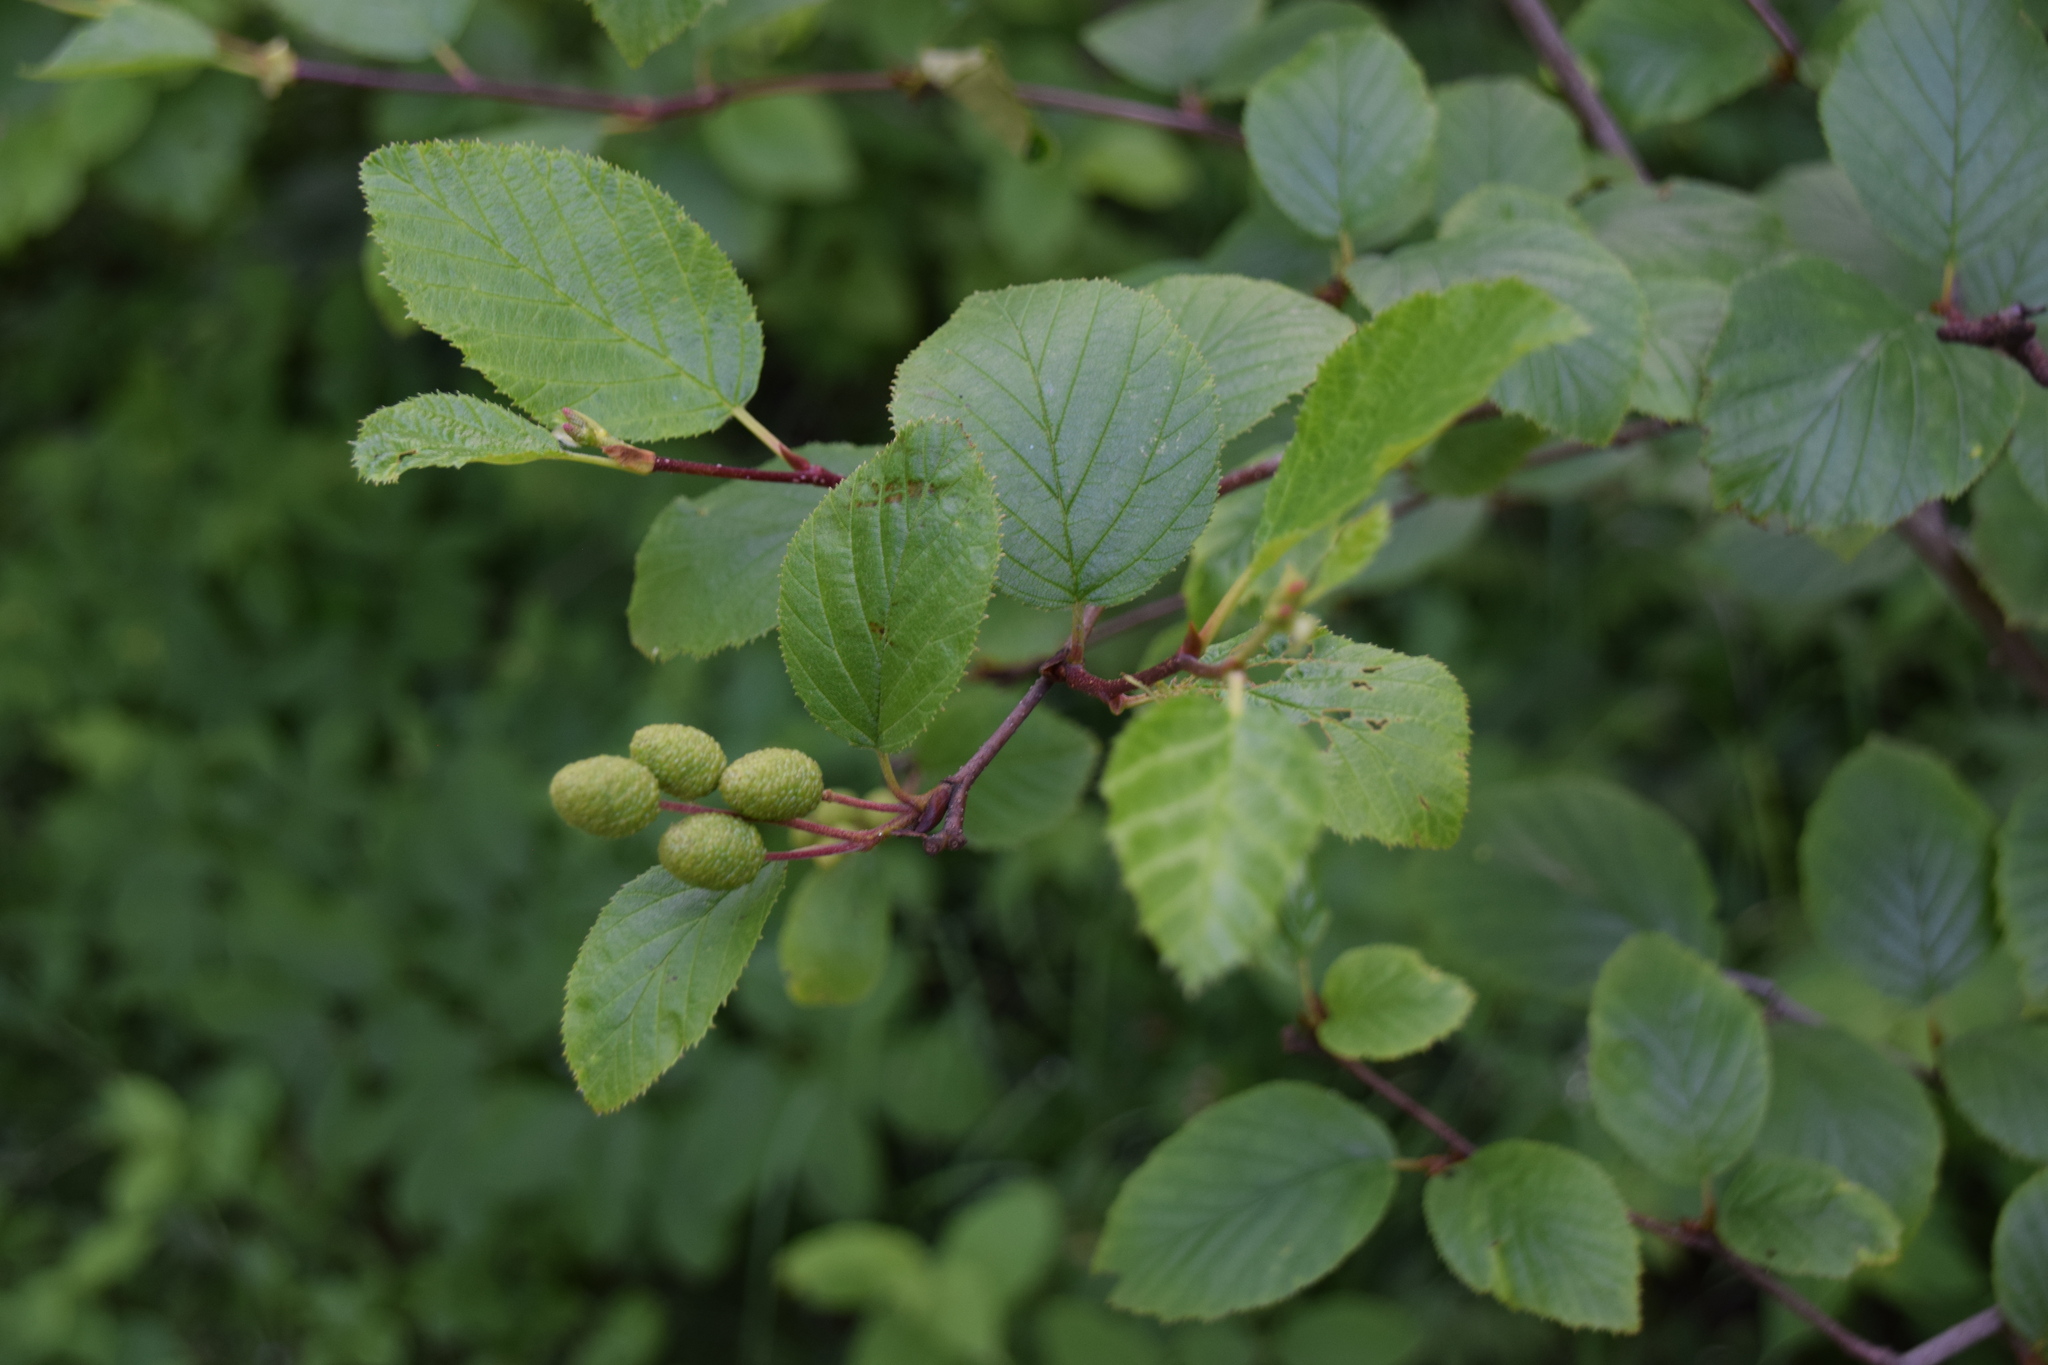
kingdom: Plantae
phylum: Tracheophyta
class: Magnoliopsida
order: Fagales
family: Betulaceae
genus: Alnus
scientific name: Alnus alnobetula
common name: Green alder
